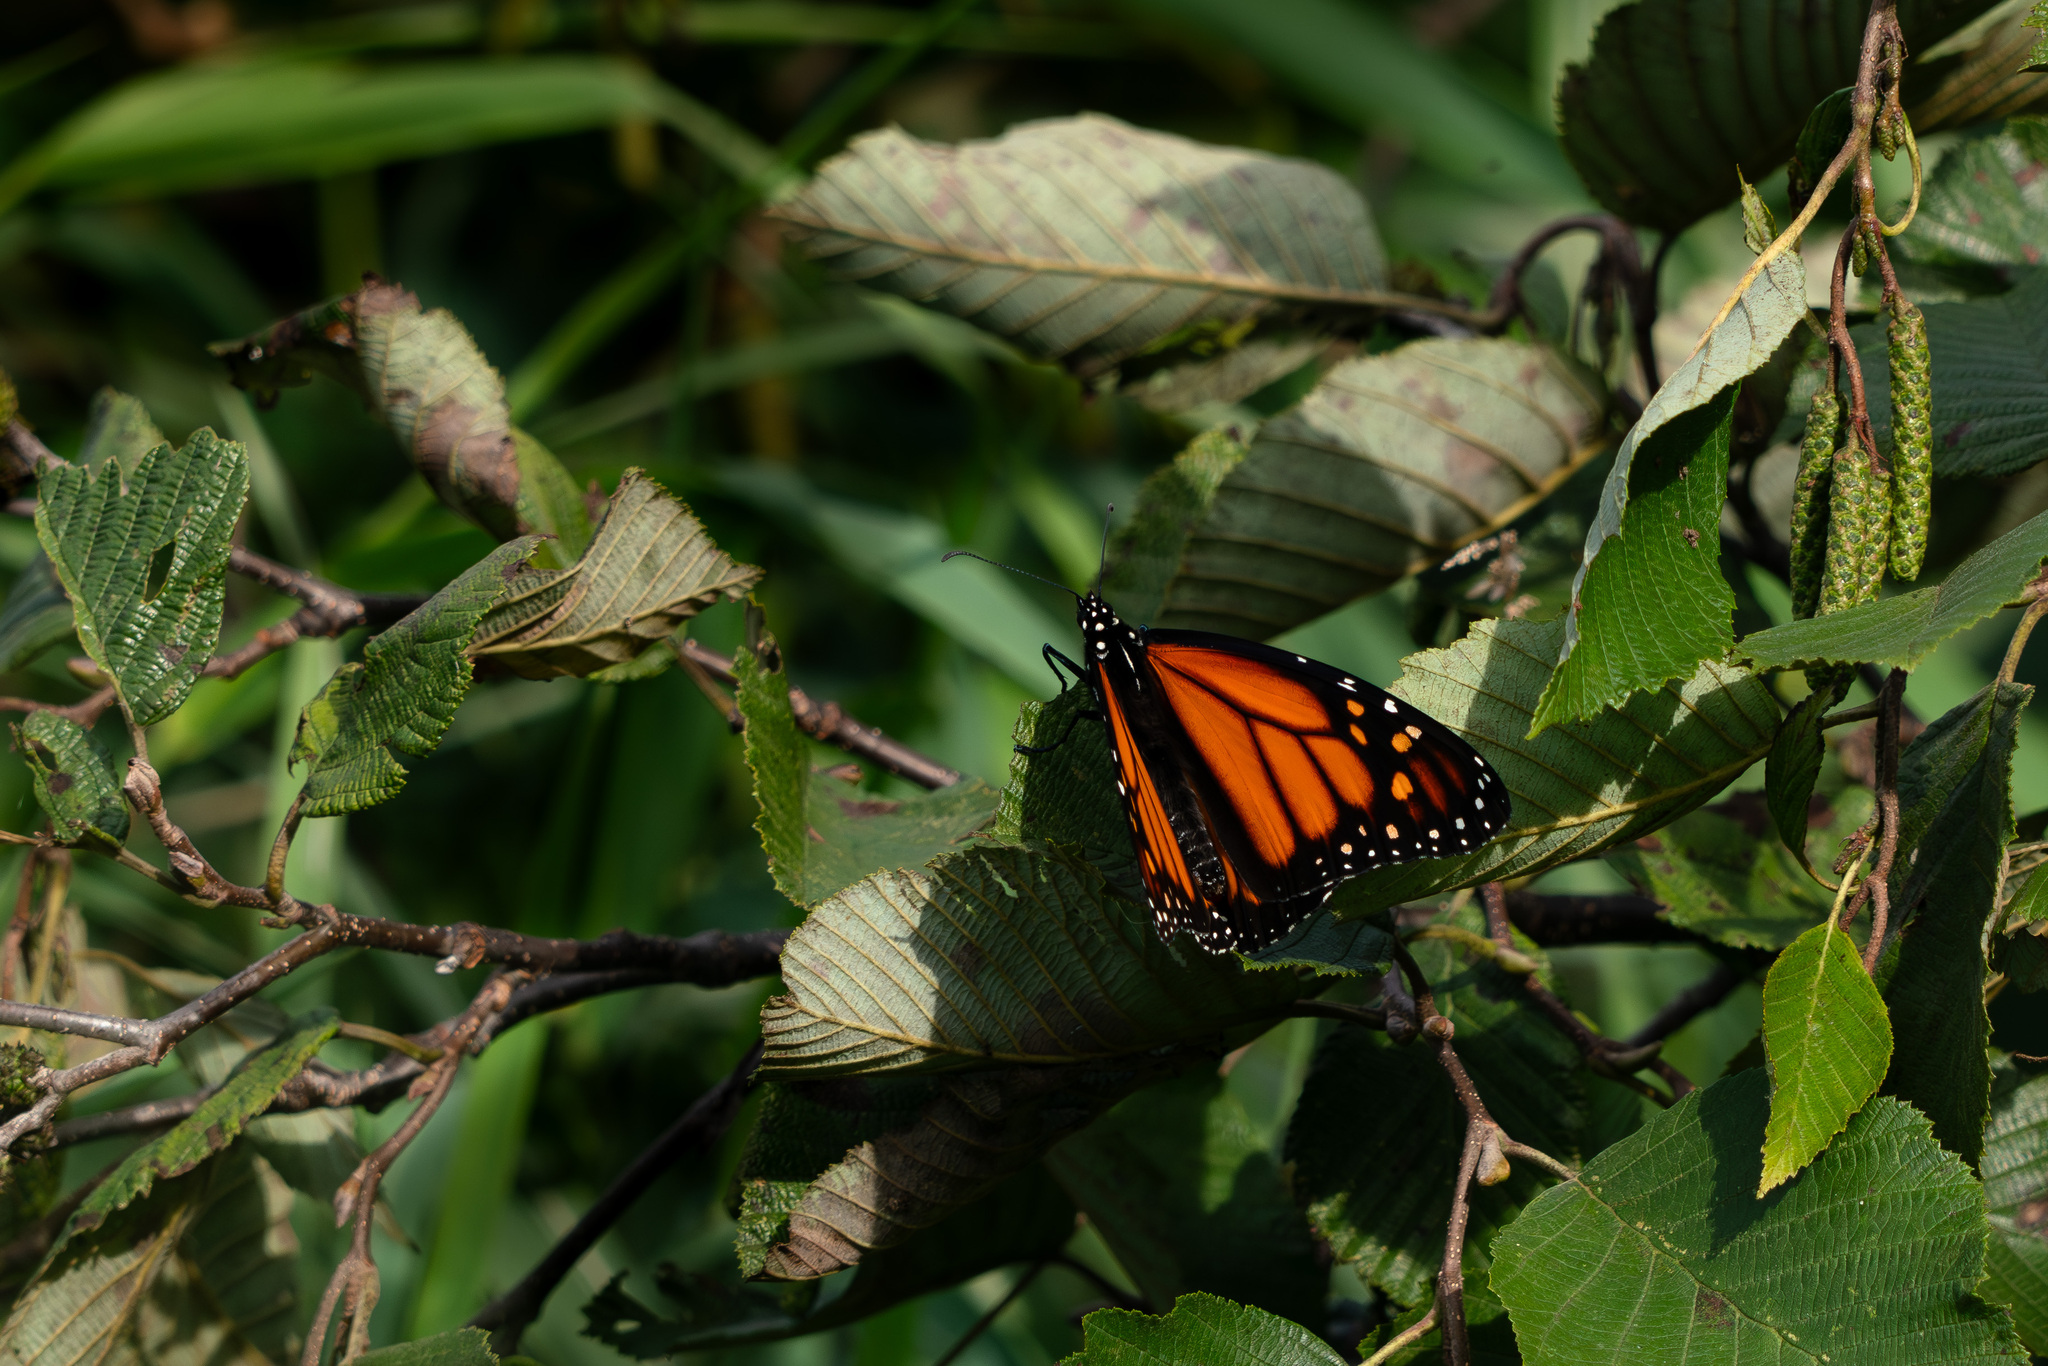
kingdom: Animalia
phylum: Arthropoda
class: Insecta
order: Lepidoptera
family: Nymphalidae
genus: Danaus
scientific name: Danaus plexippus
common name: Monarch
